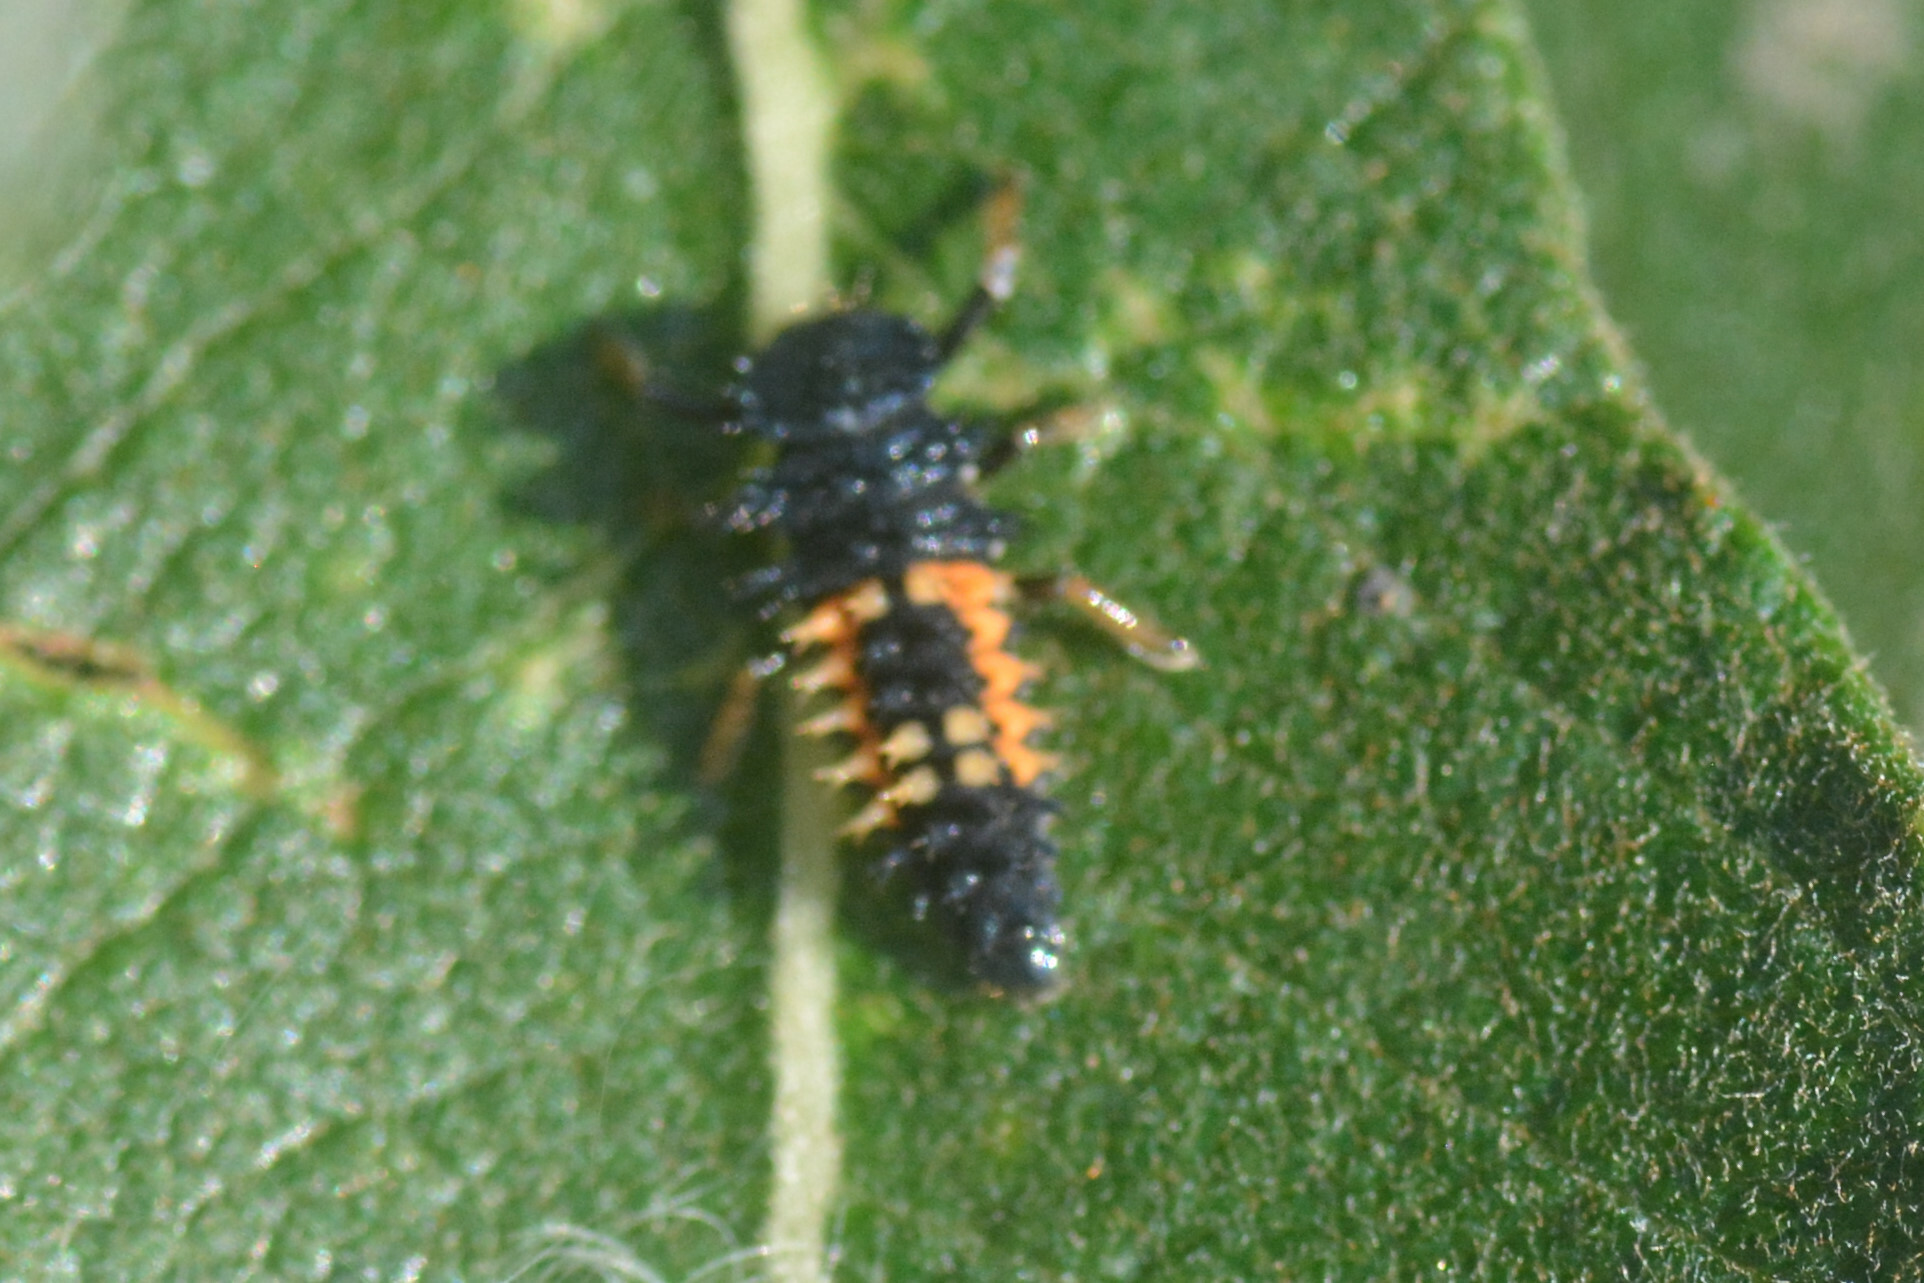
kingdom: Animalia
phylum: Arthropoda
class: Insecta
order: Coleoptera
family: Coccinellidae
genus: Harmonia
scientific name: Harmonia axyridis
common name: Harlequin ladybird
